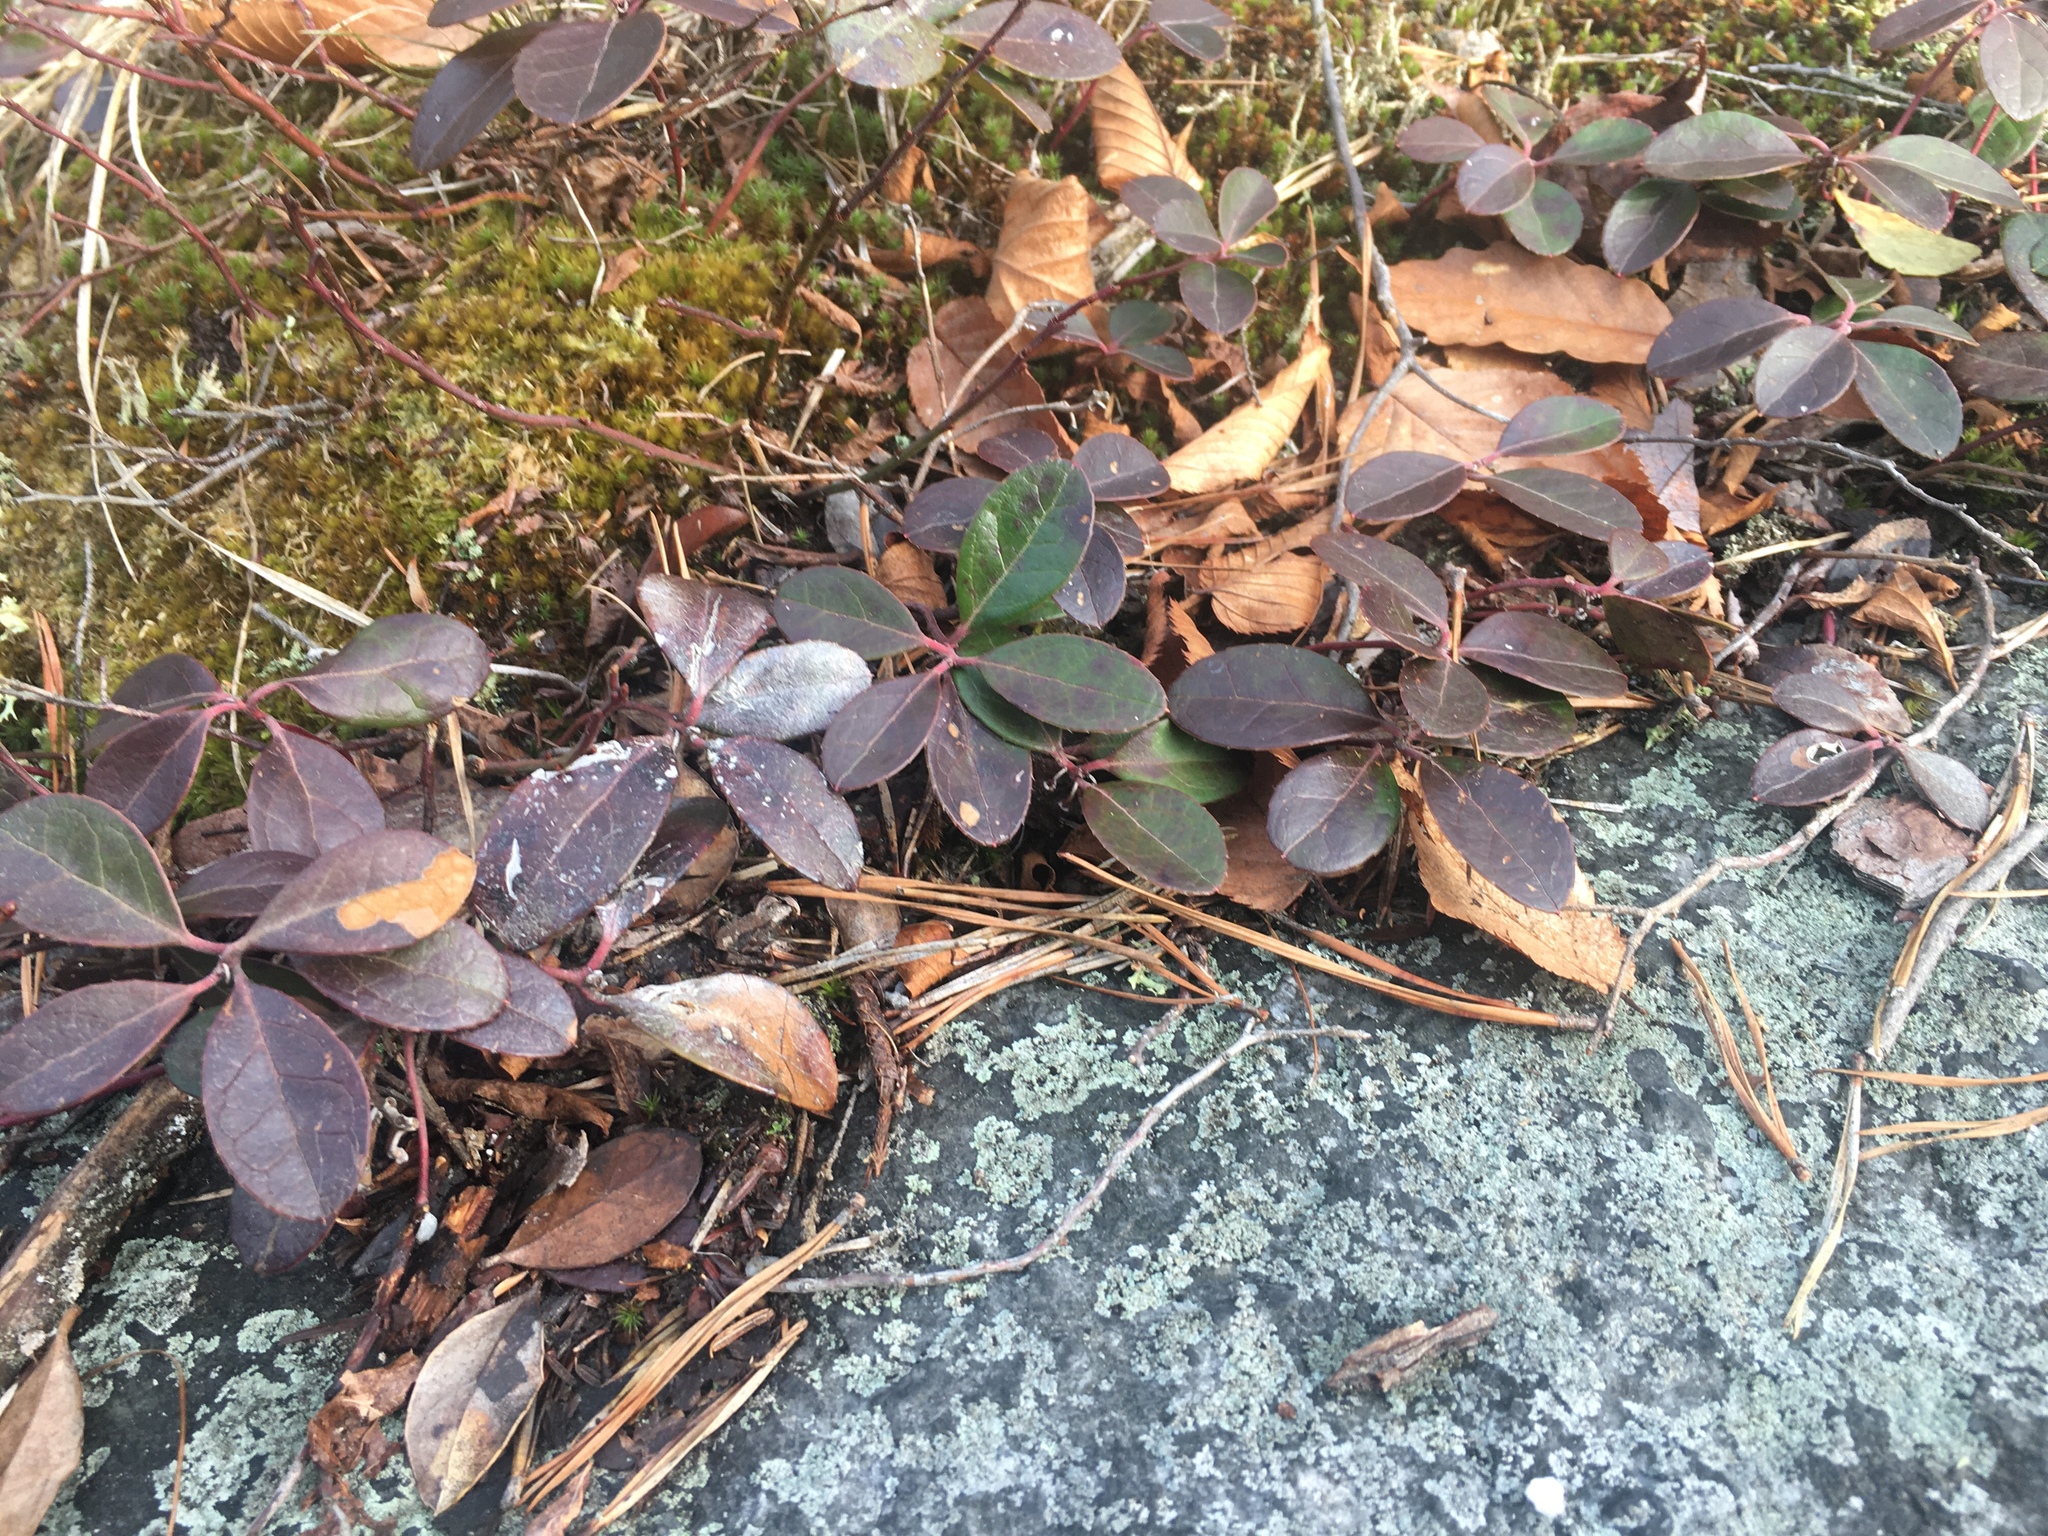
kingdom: Plantae
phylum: Tracheophyta
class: Magnoliopsida
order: Ericales
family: Ericaceae
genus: Gaultheria
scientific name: Gaultheria procumbens
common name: Checkerberry
